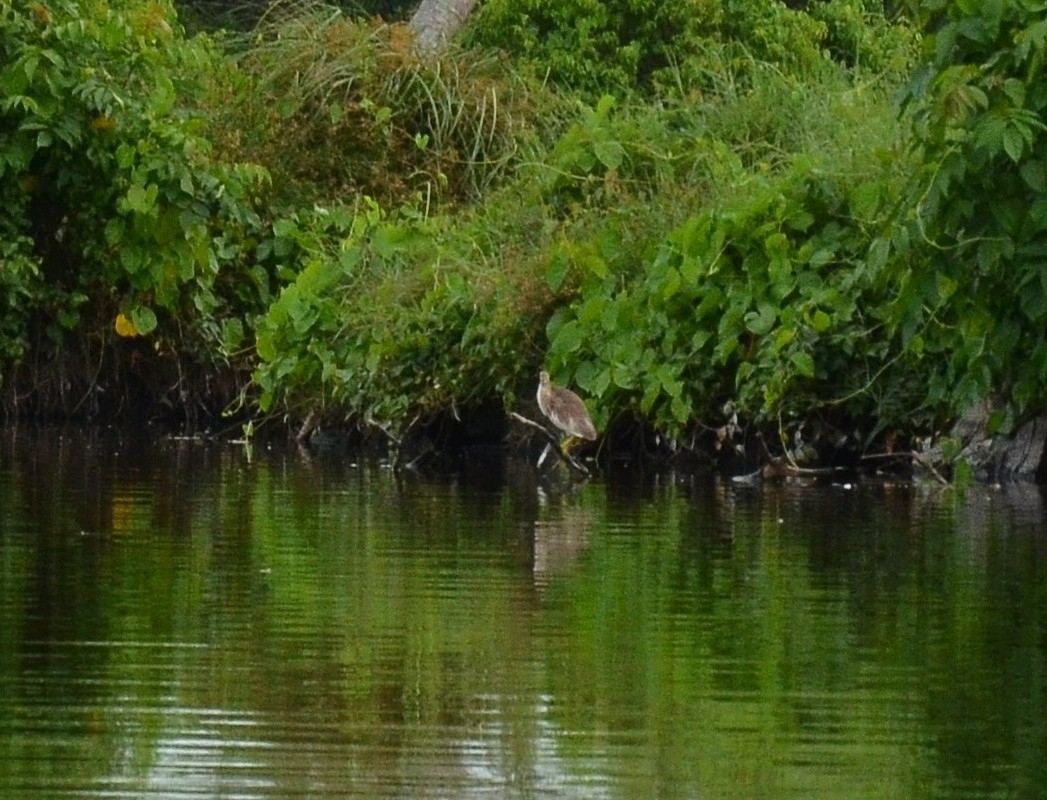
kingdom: Animalia
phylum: Chordata
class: Aves
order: Pelecaniformes
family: Ardeidae
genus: Ardeola
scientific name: Ardeola grayii
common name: Indian pond heron
